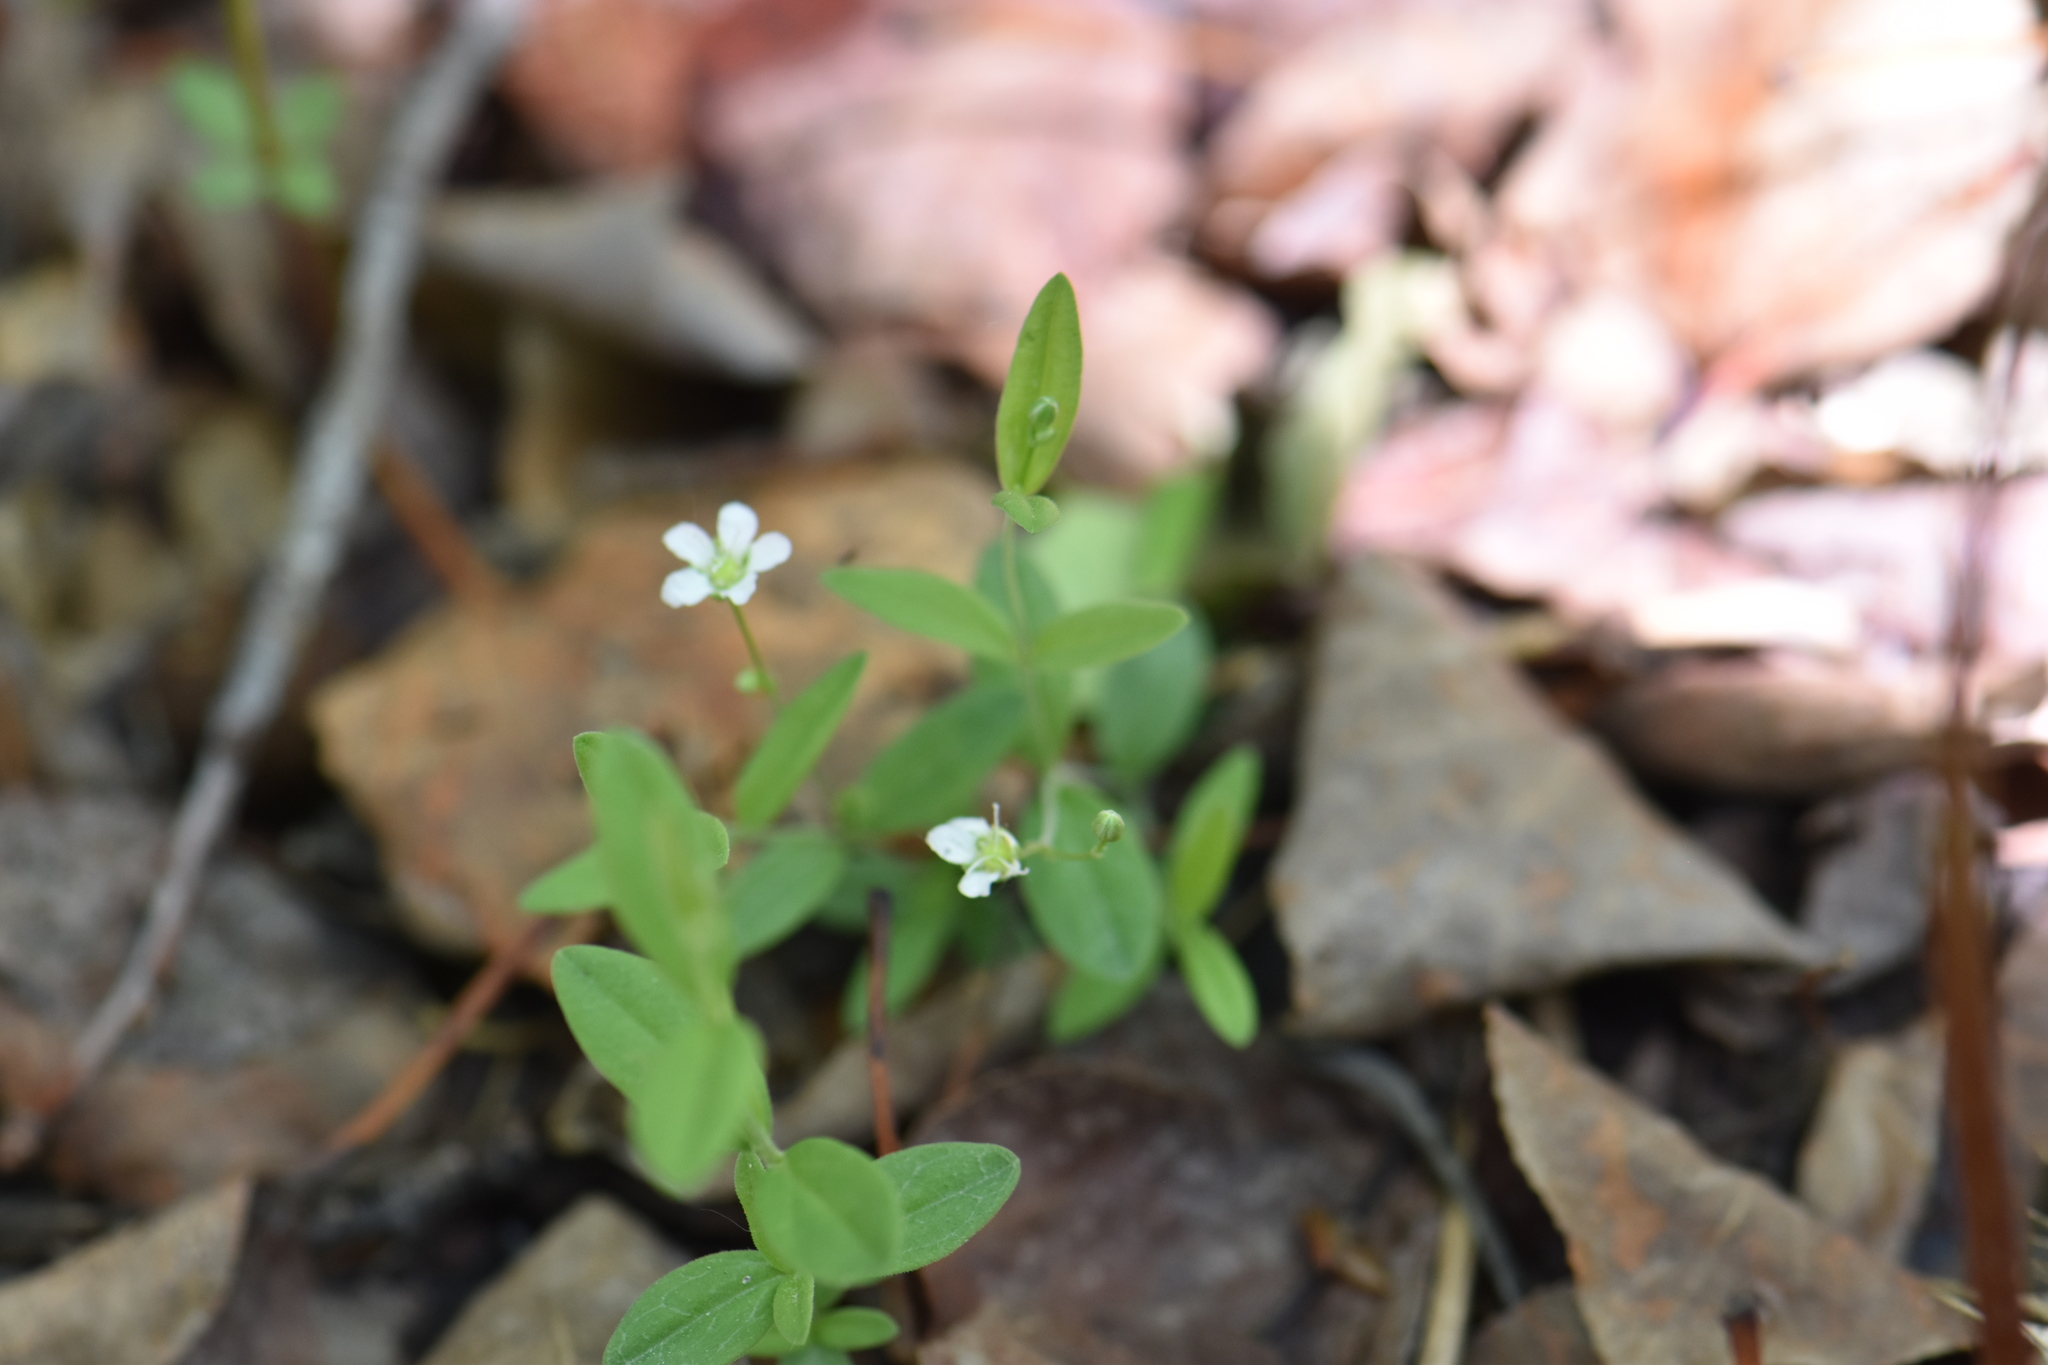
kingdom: Plantae
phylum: Tracheophyta
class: Magnoliopsida
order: Caryophyllales
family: Caryophyllaceae
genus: Moehringia
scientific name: Moehringia lateriflora
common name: Blunt-leaved sandwort
